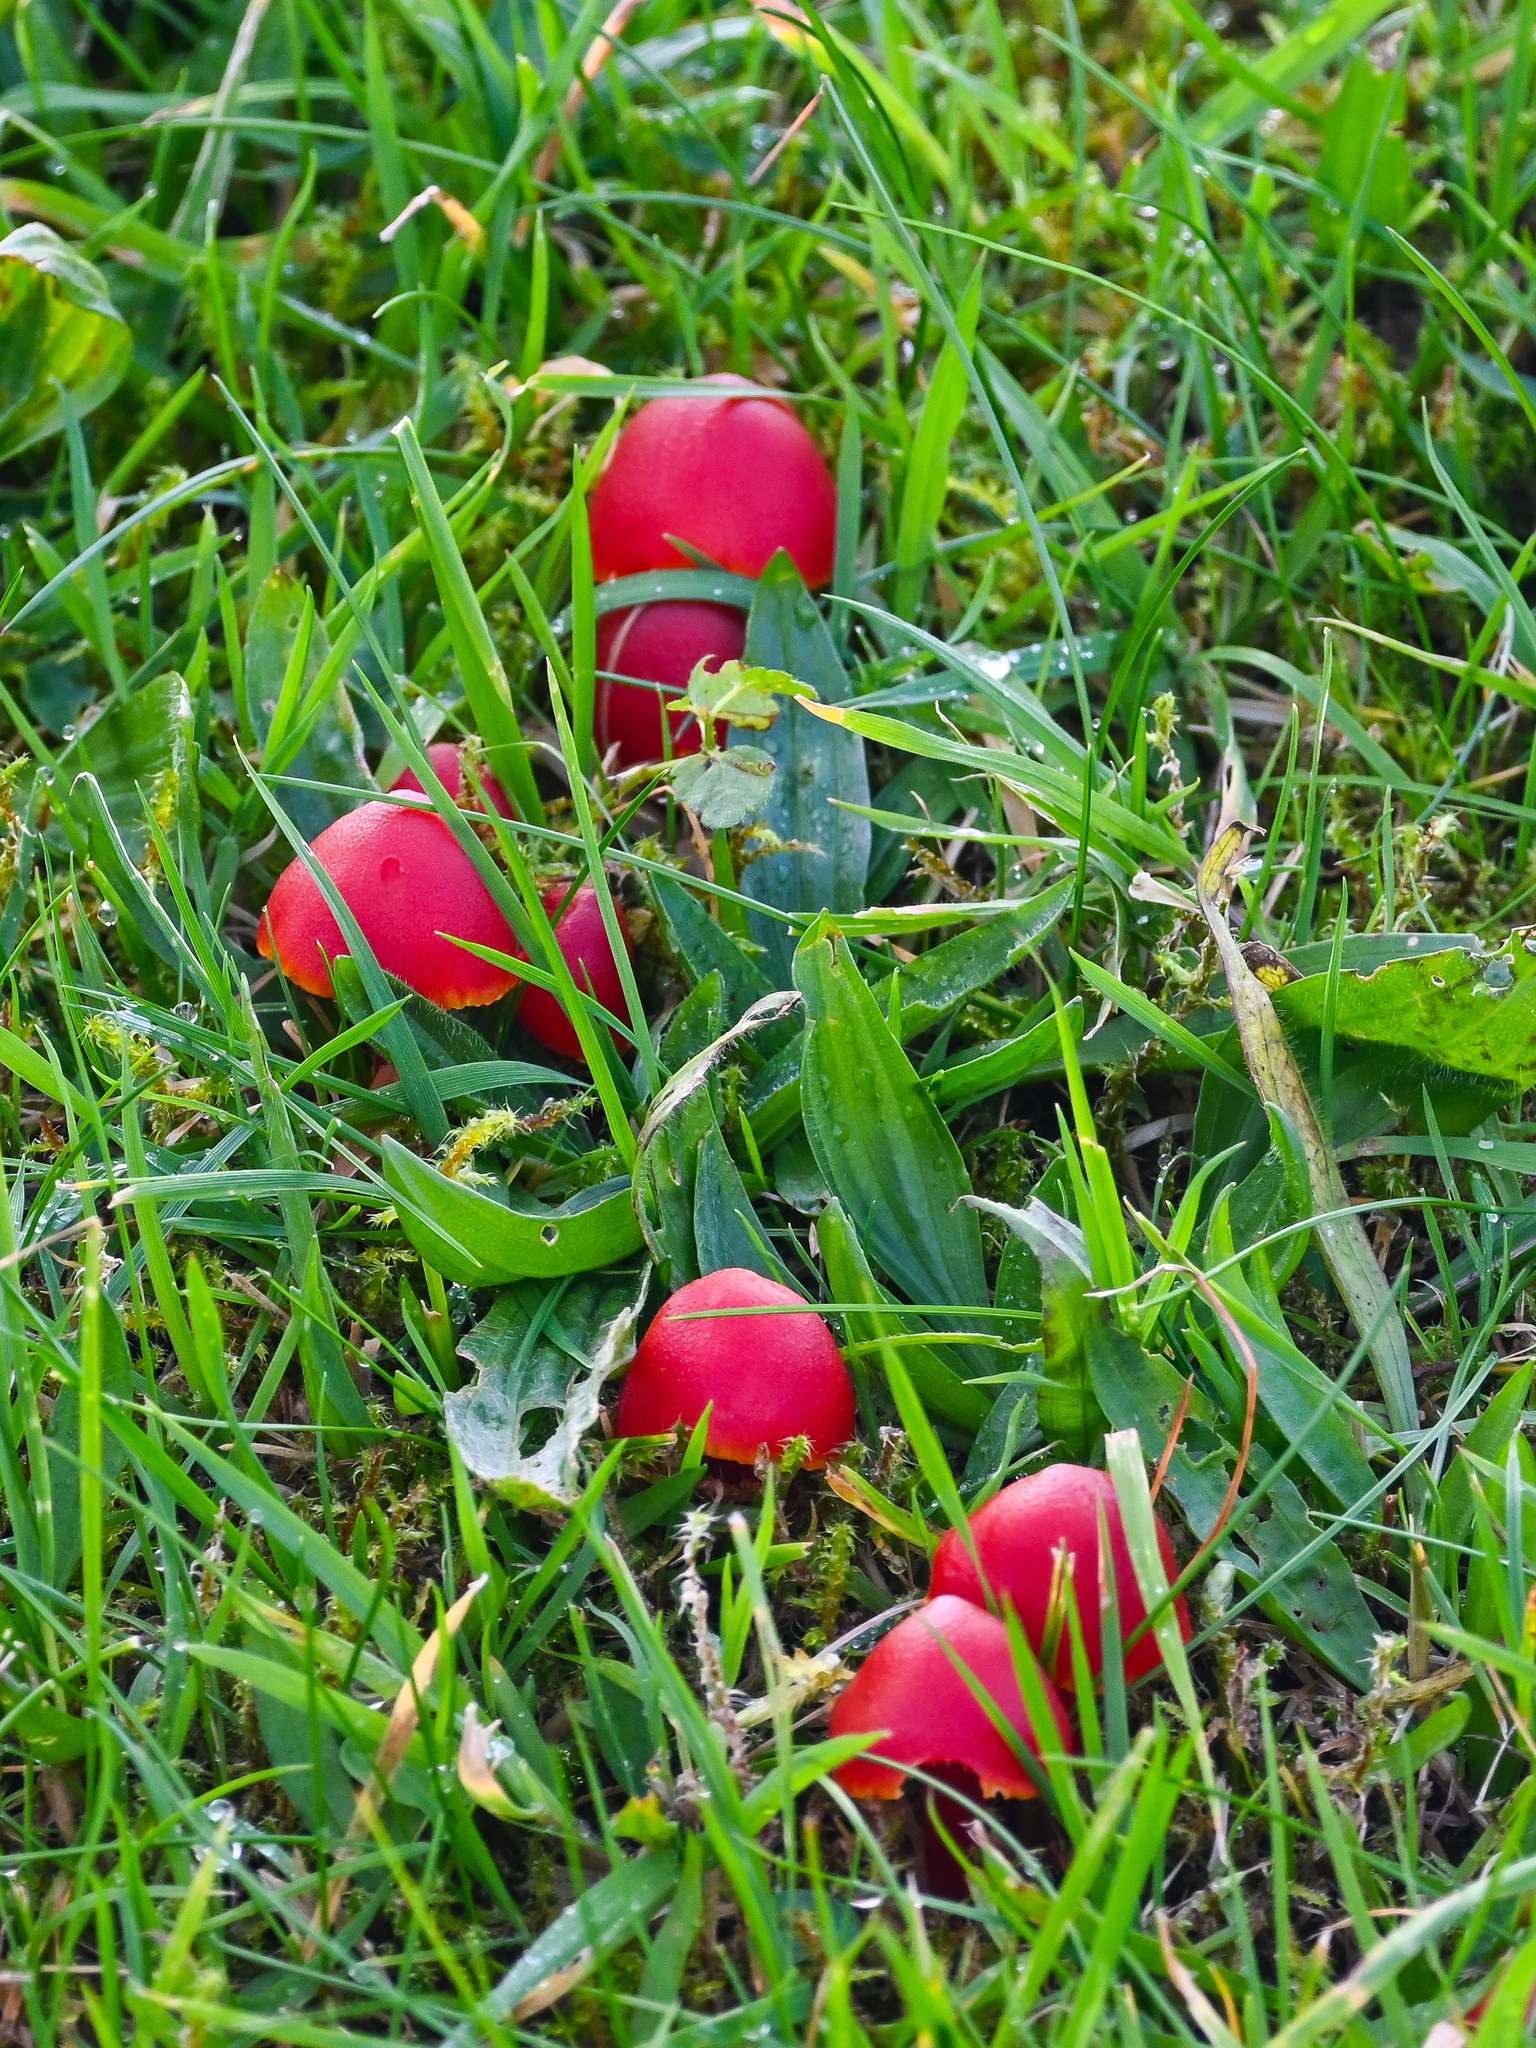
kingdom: Fungi
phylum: Basidiomycota
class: Agaricomycetes
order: Agaricales
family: Hygrophoraceae
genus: Hygrocybe
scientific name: Hygrocybe coccinea
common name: Scarlet hood
